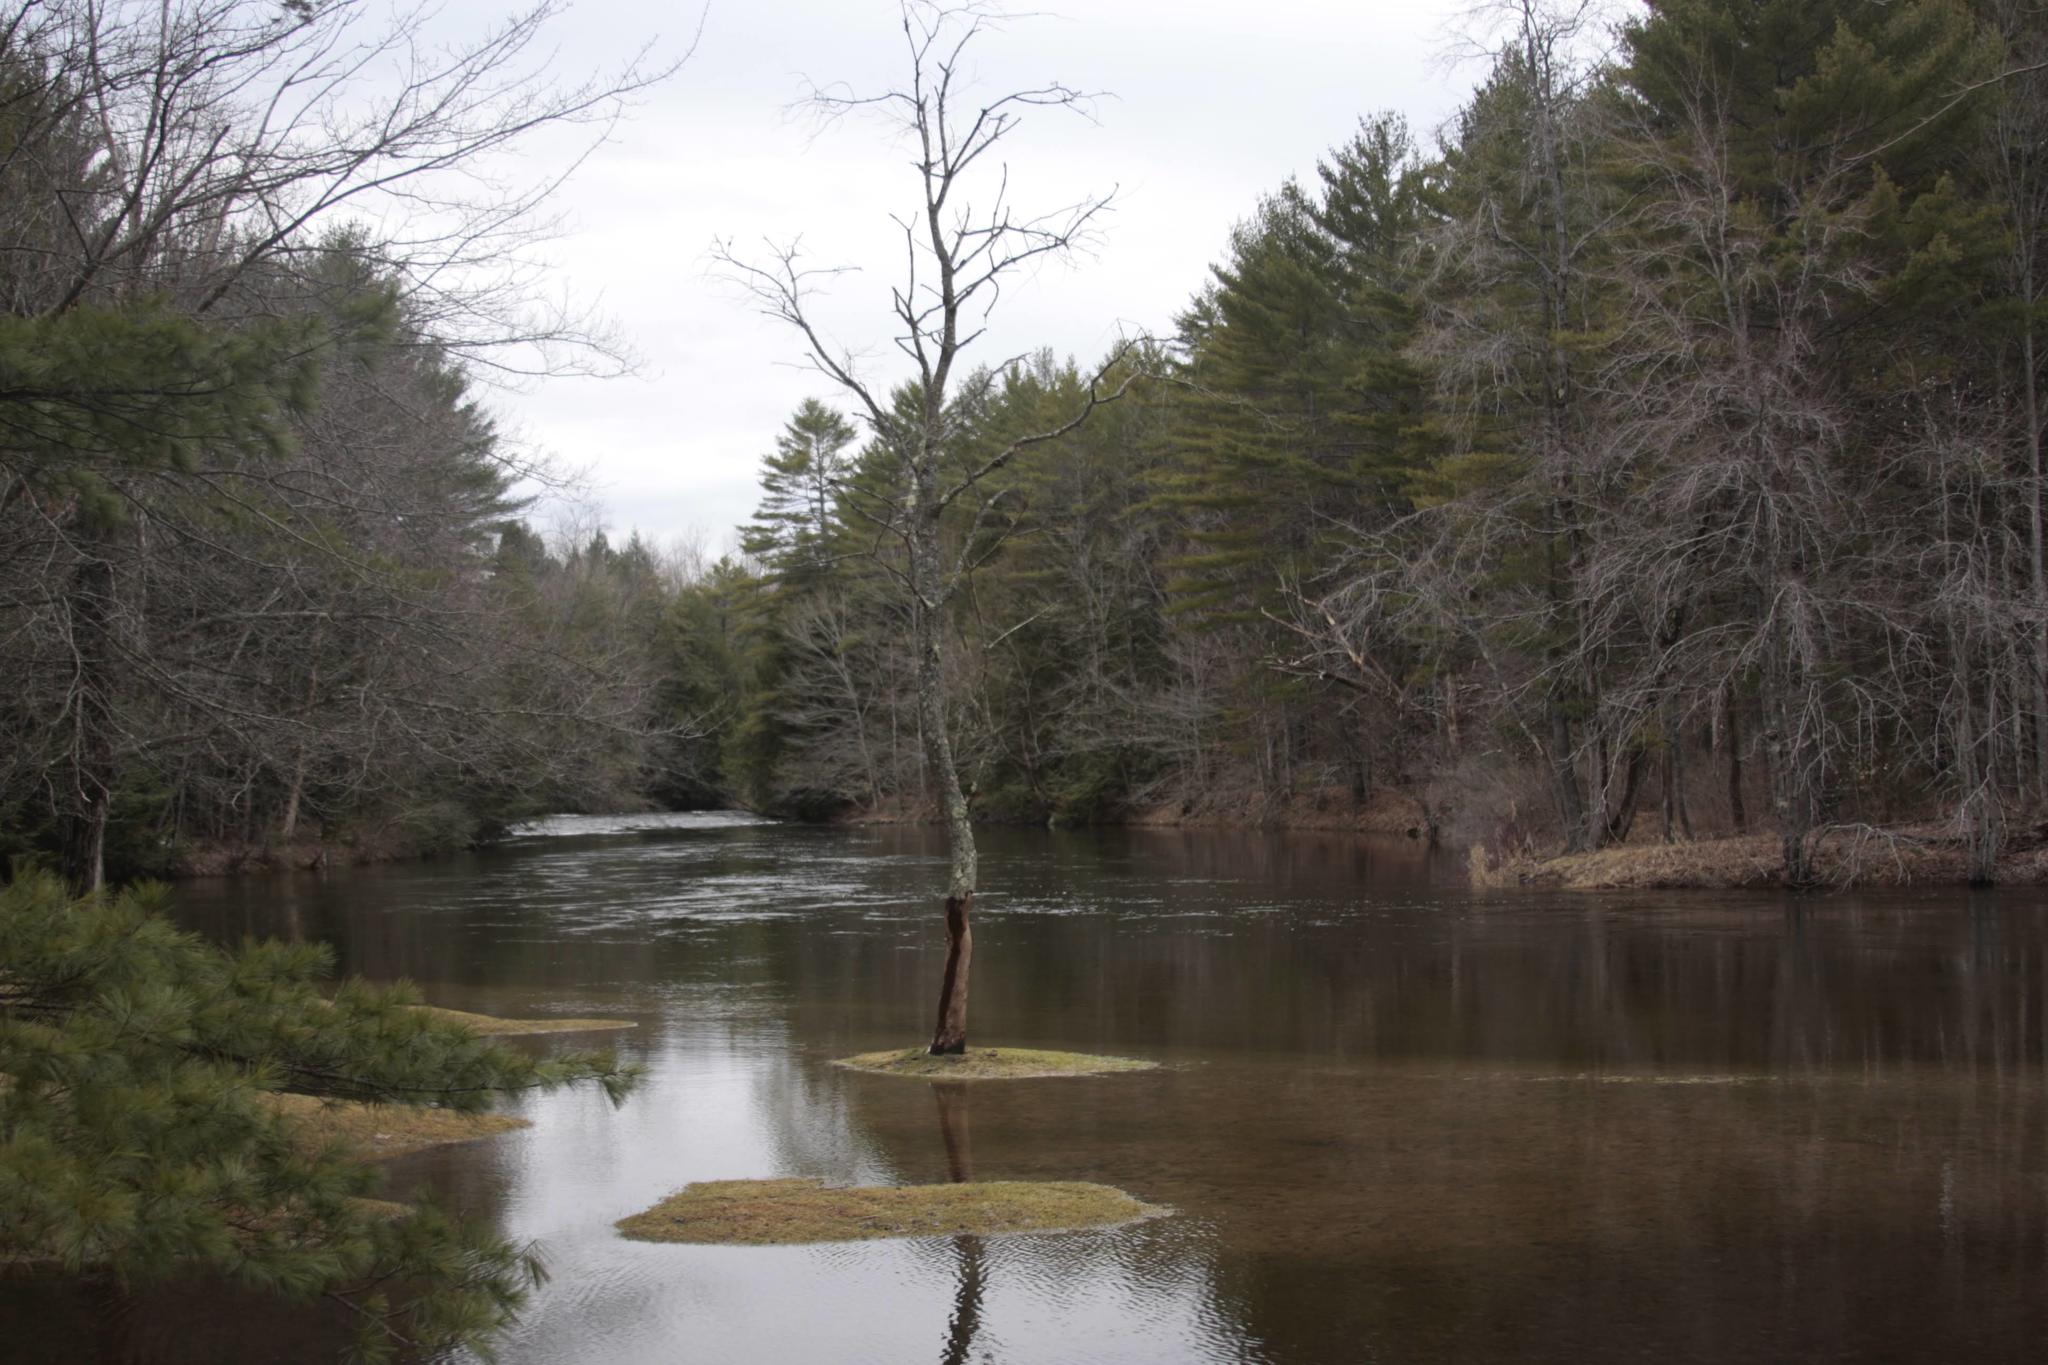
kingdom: Plantae
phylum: Tracheophyta
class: Pinopsida
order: Pinales
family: Pinaceae
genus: Pinus
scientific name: Pinus strobus
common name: Weymouth pine
